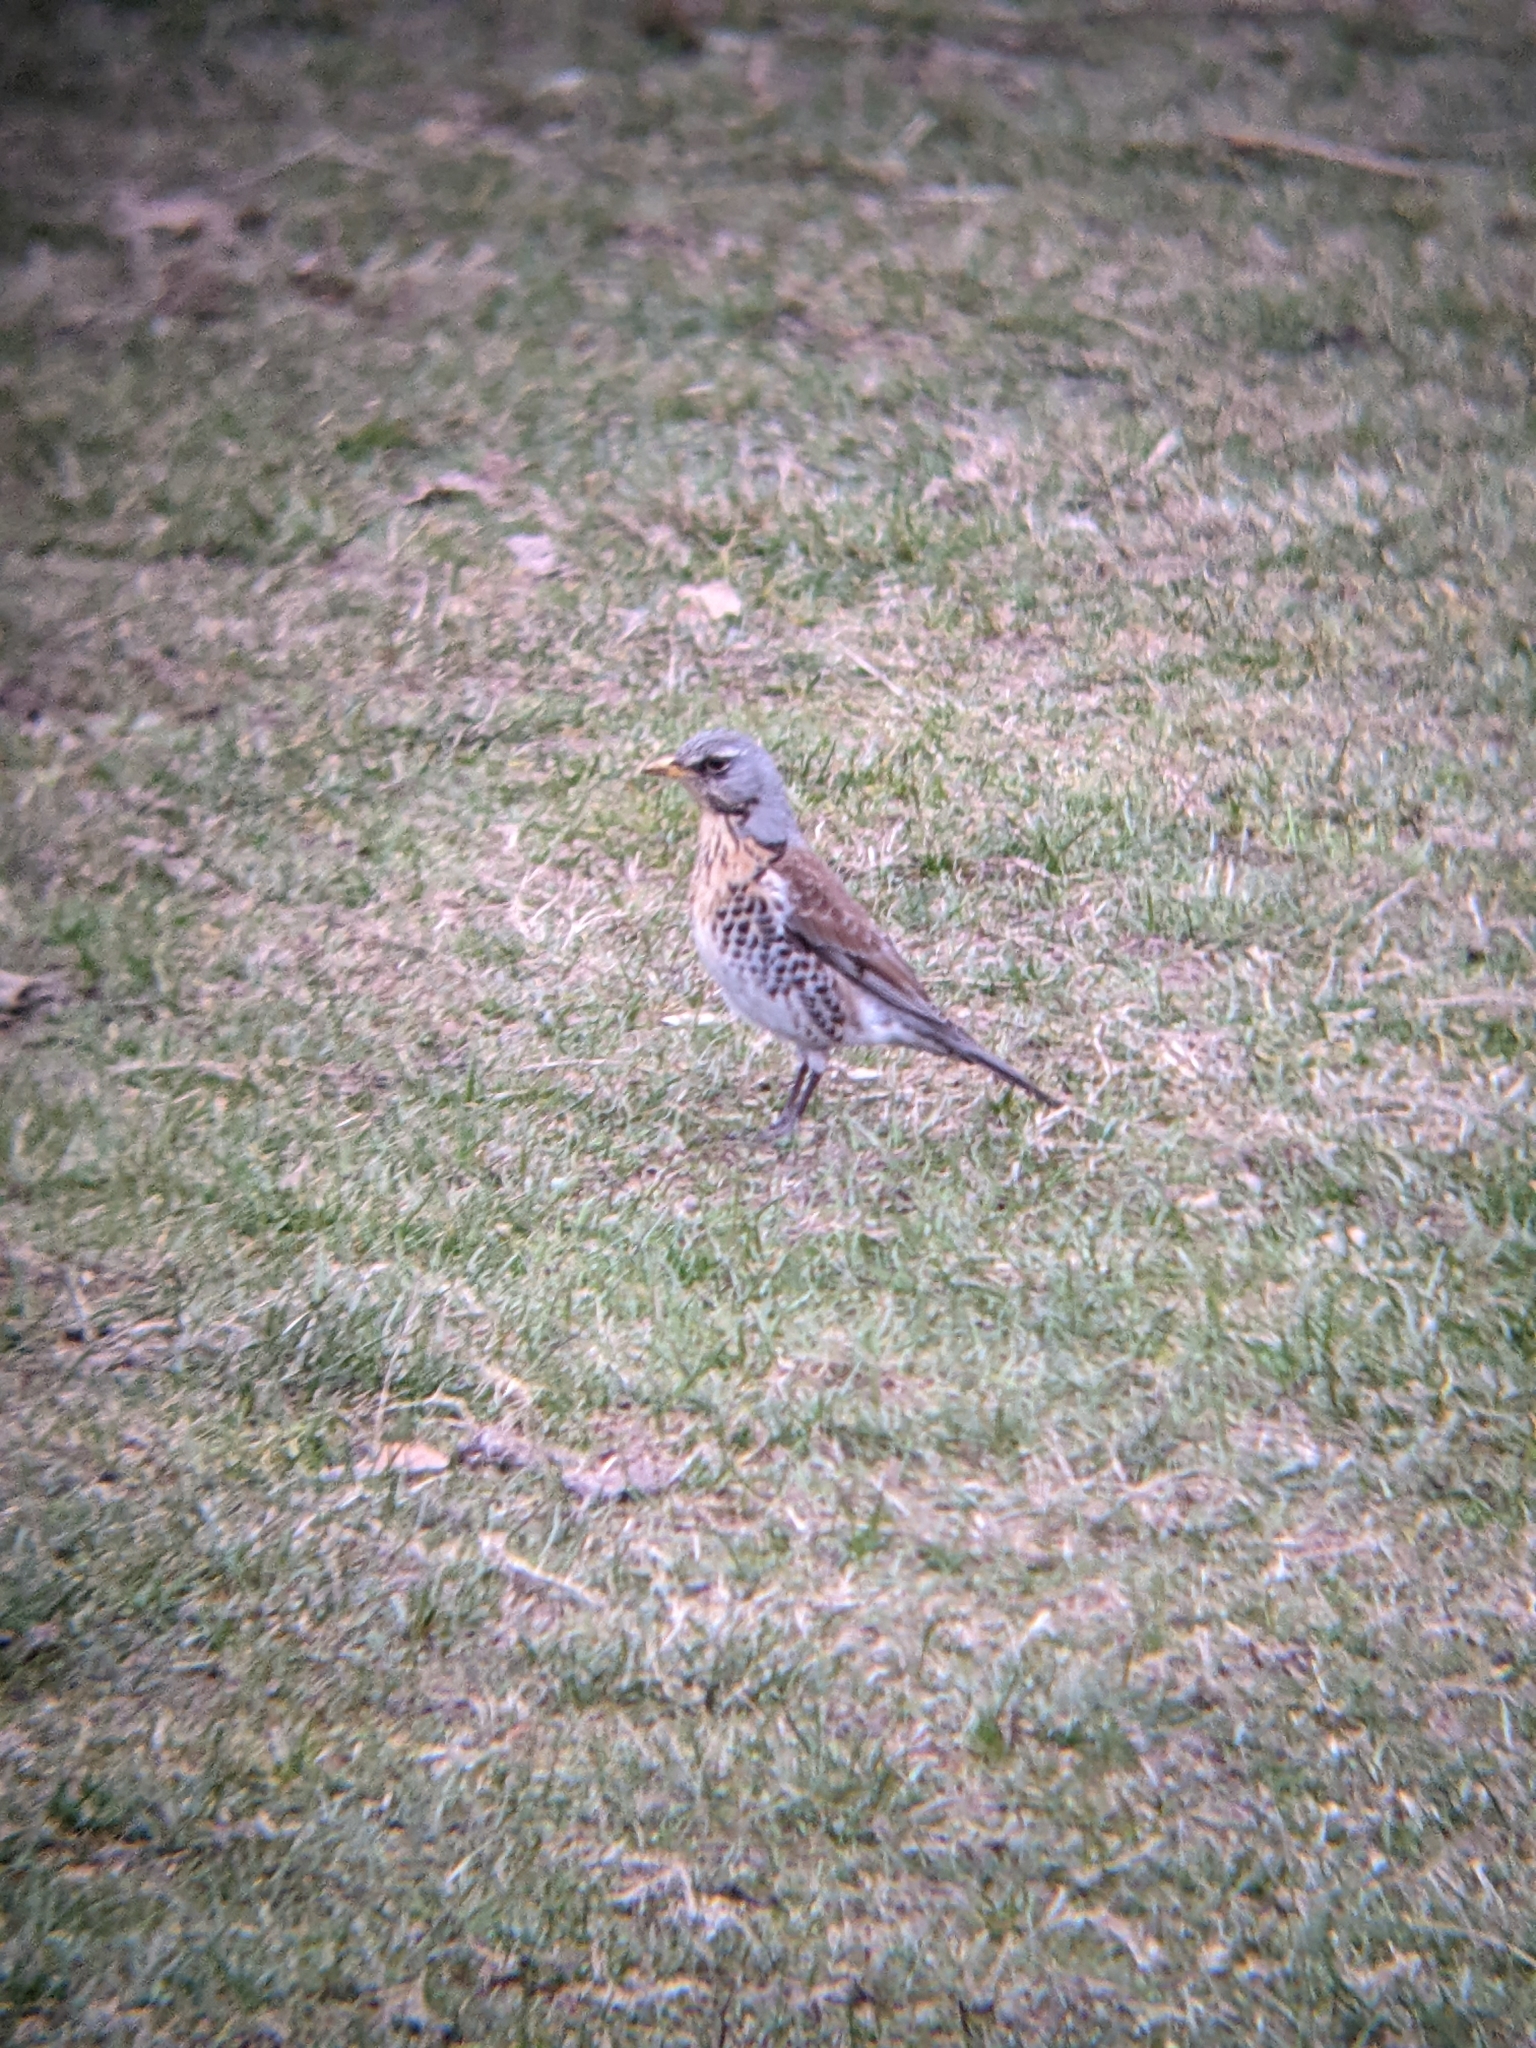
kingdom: Animalia
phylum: Chordata
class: Aves
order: Passeriformes
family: Turdidae
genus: Turdus
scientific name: Turdus pilaris
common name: Fieldfare
